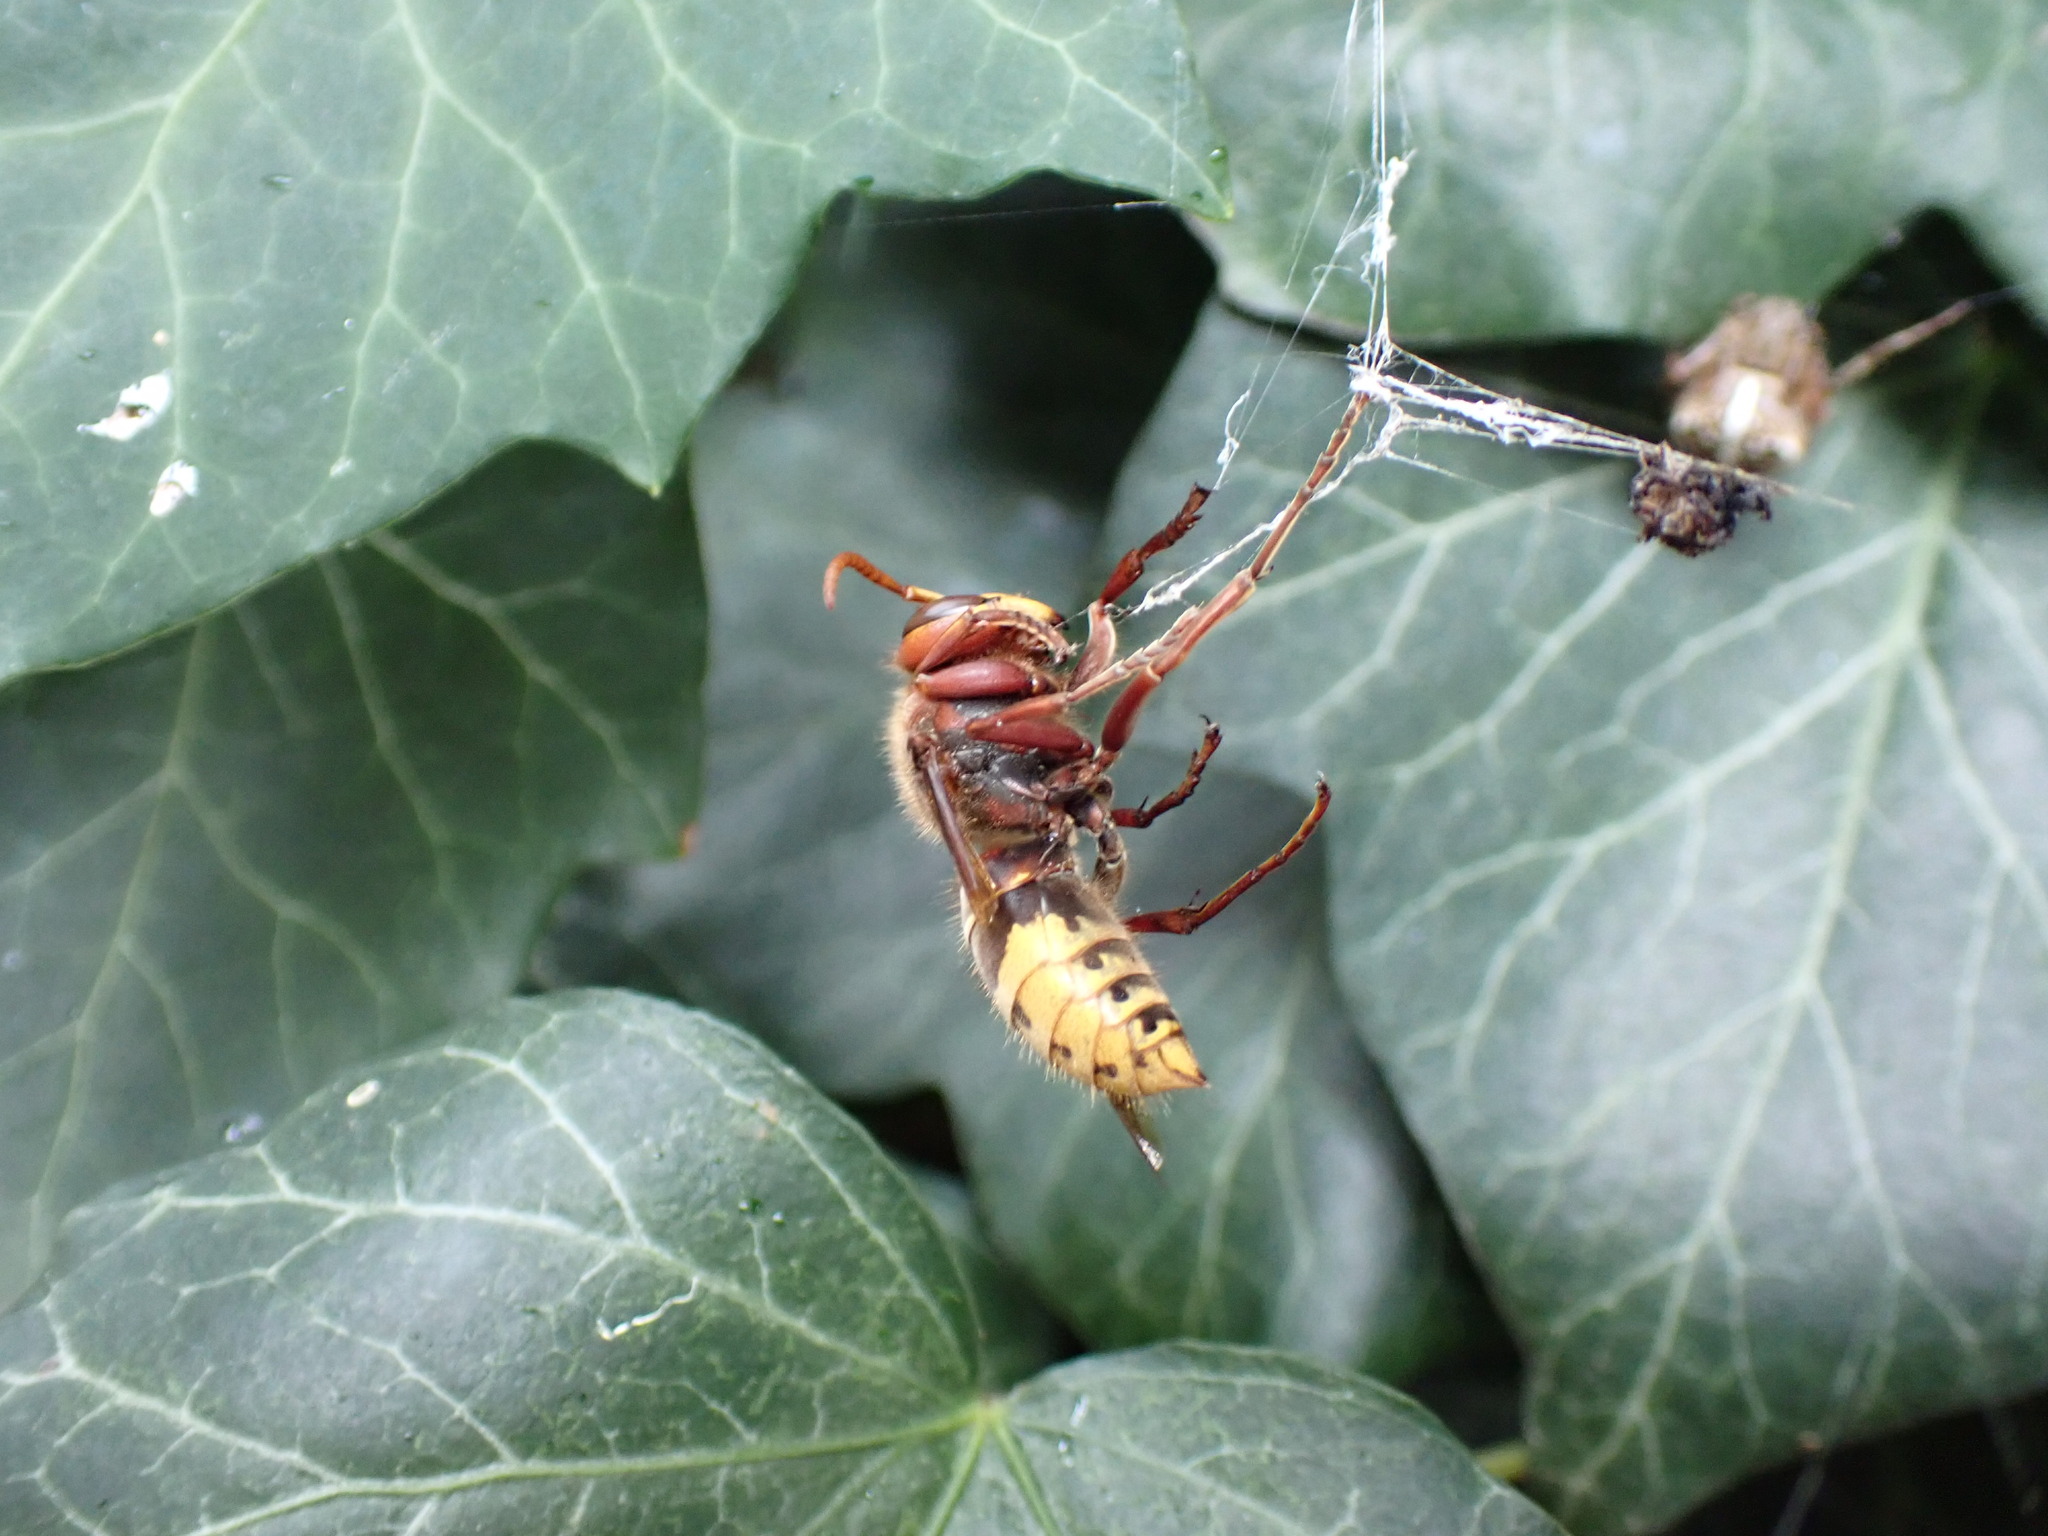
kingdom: Animalia
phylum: Arthropoda
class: Arachnida
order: Araneae
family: Araneidae
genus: Araneus
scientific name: Araneus diadematus
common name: Cross orbweaver
